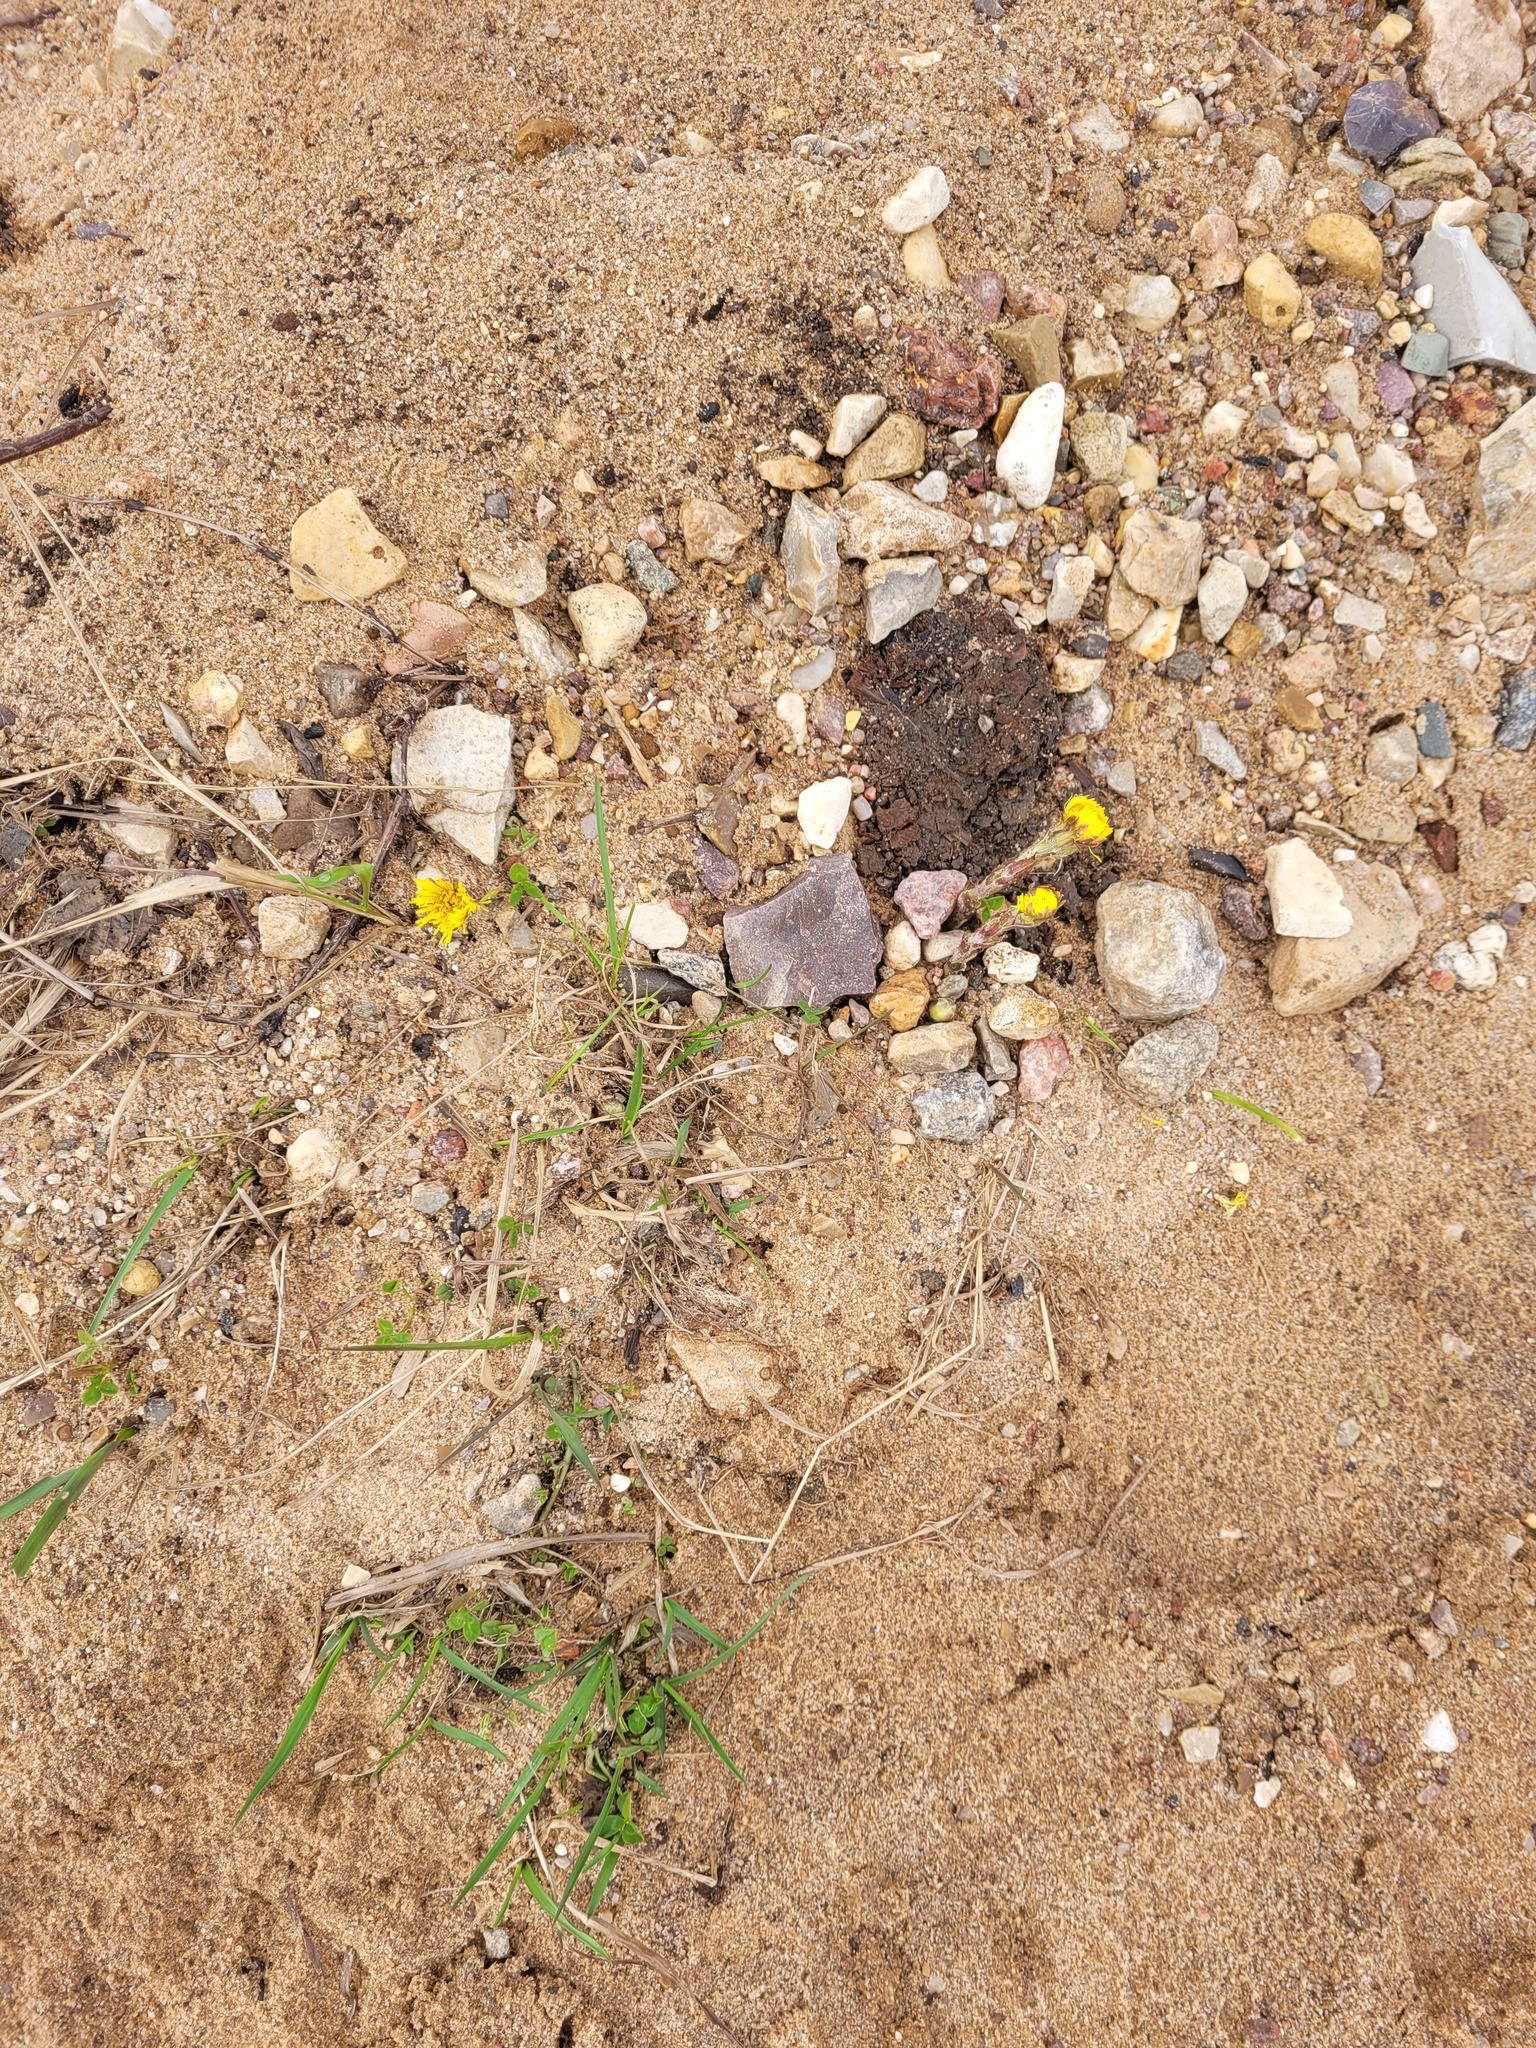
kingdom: Plantae
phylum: Tracheophyta
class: Magnoliopsida
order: Asterales
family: Asteraceae
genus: Tussilago
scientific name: Tussilago farfara
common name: Coltsfoot
